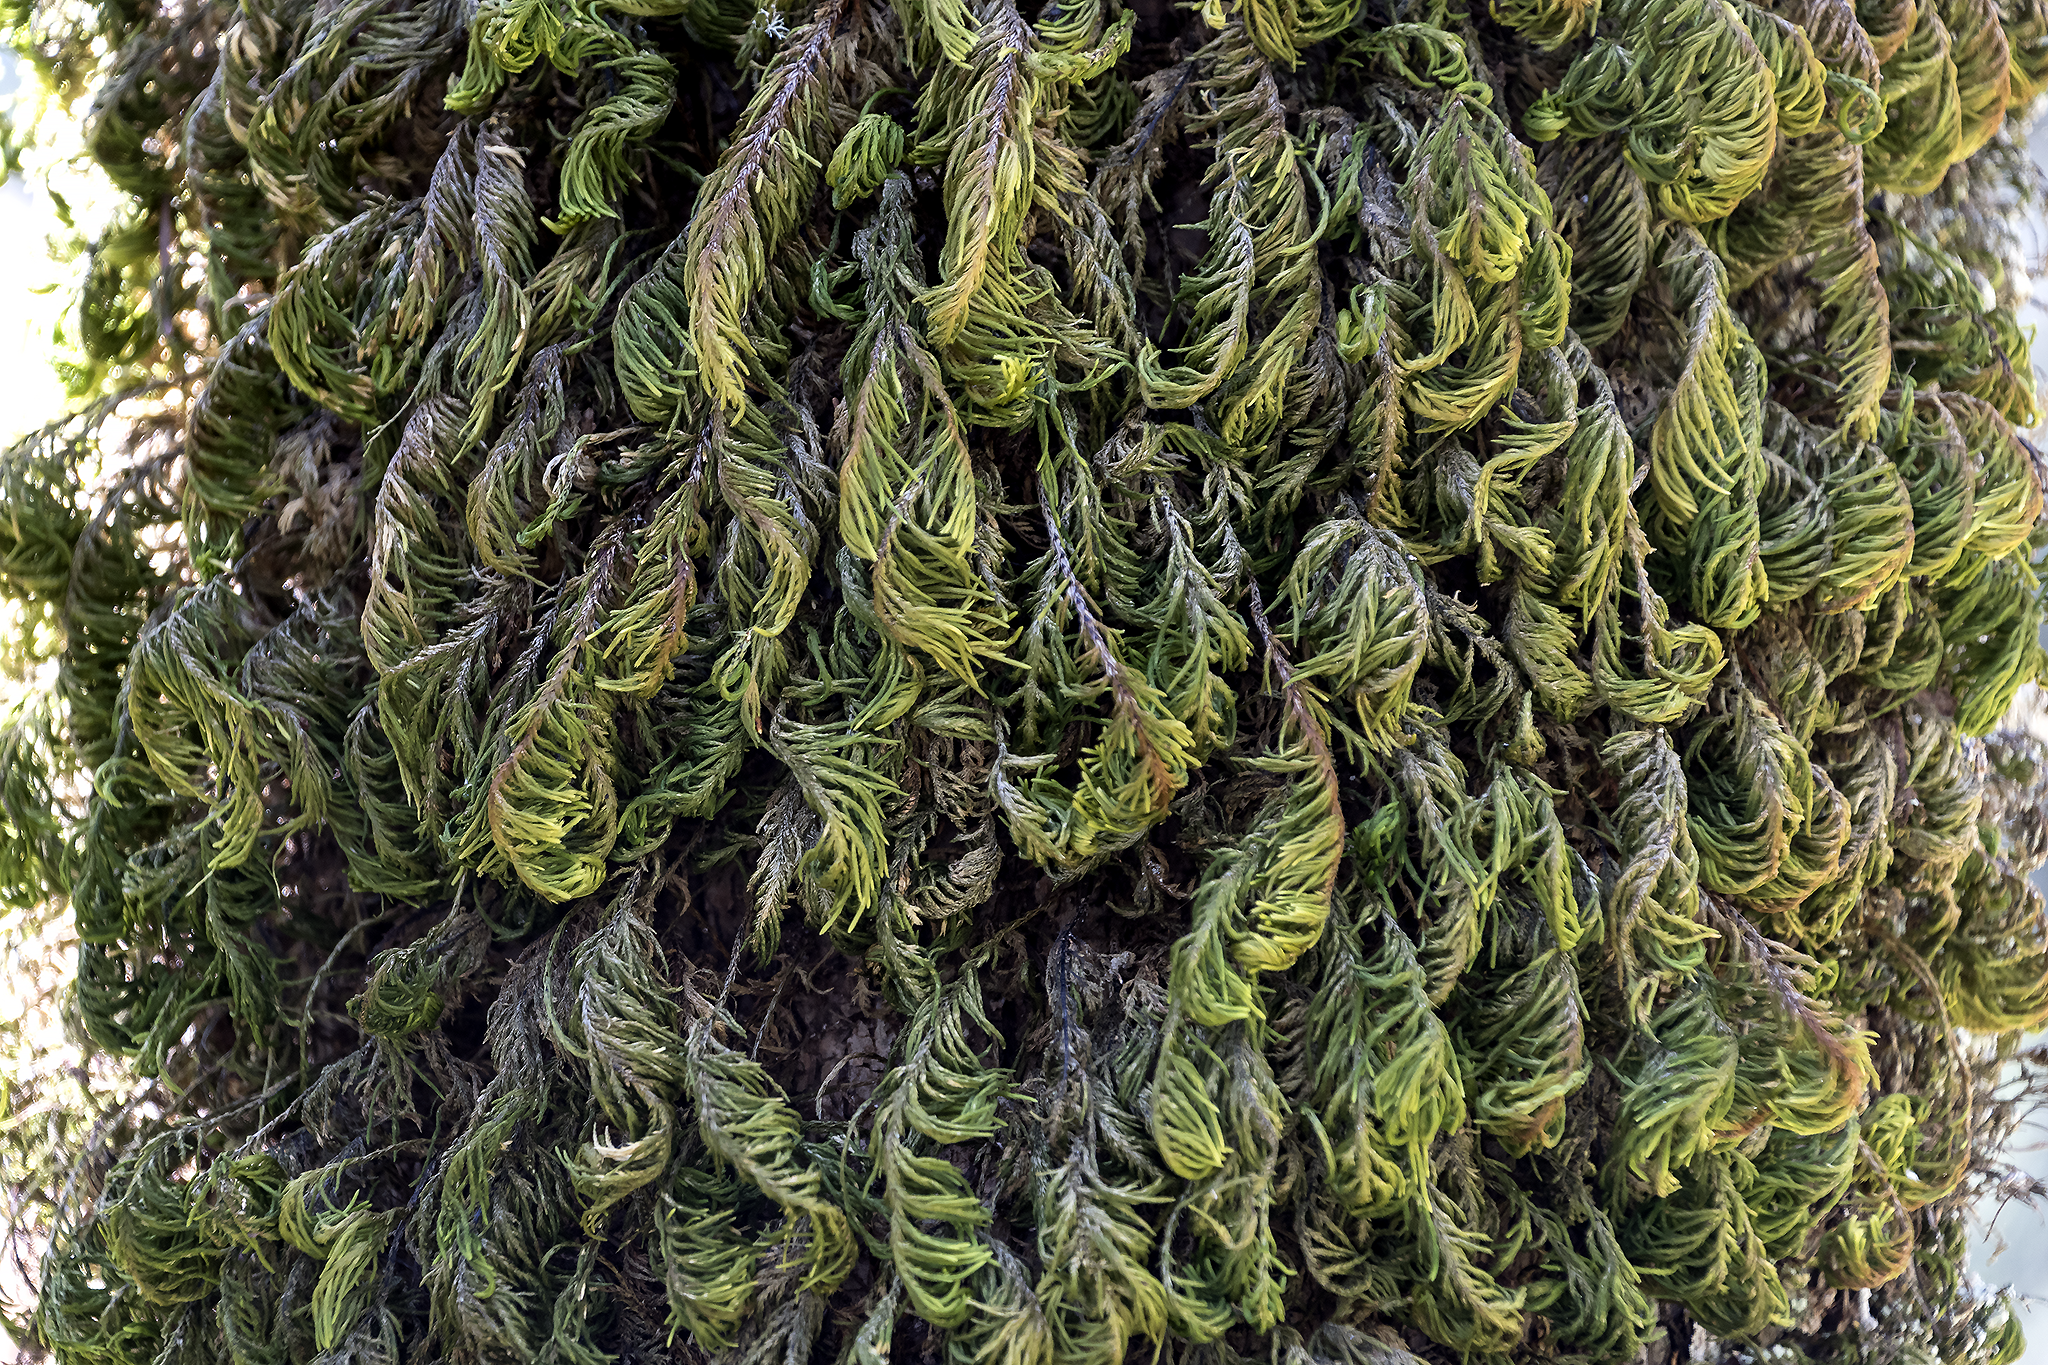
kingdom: Plantae
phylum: Bryophyta
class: Bryopsida
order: Hypnales
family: Cryphaeaceae
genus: Dendroalsia
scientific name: Dendroalsia abietina
